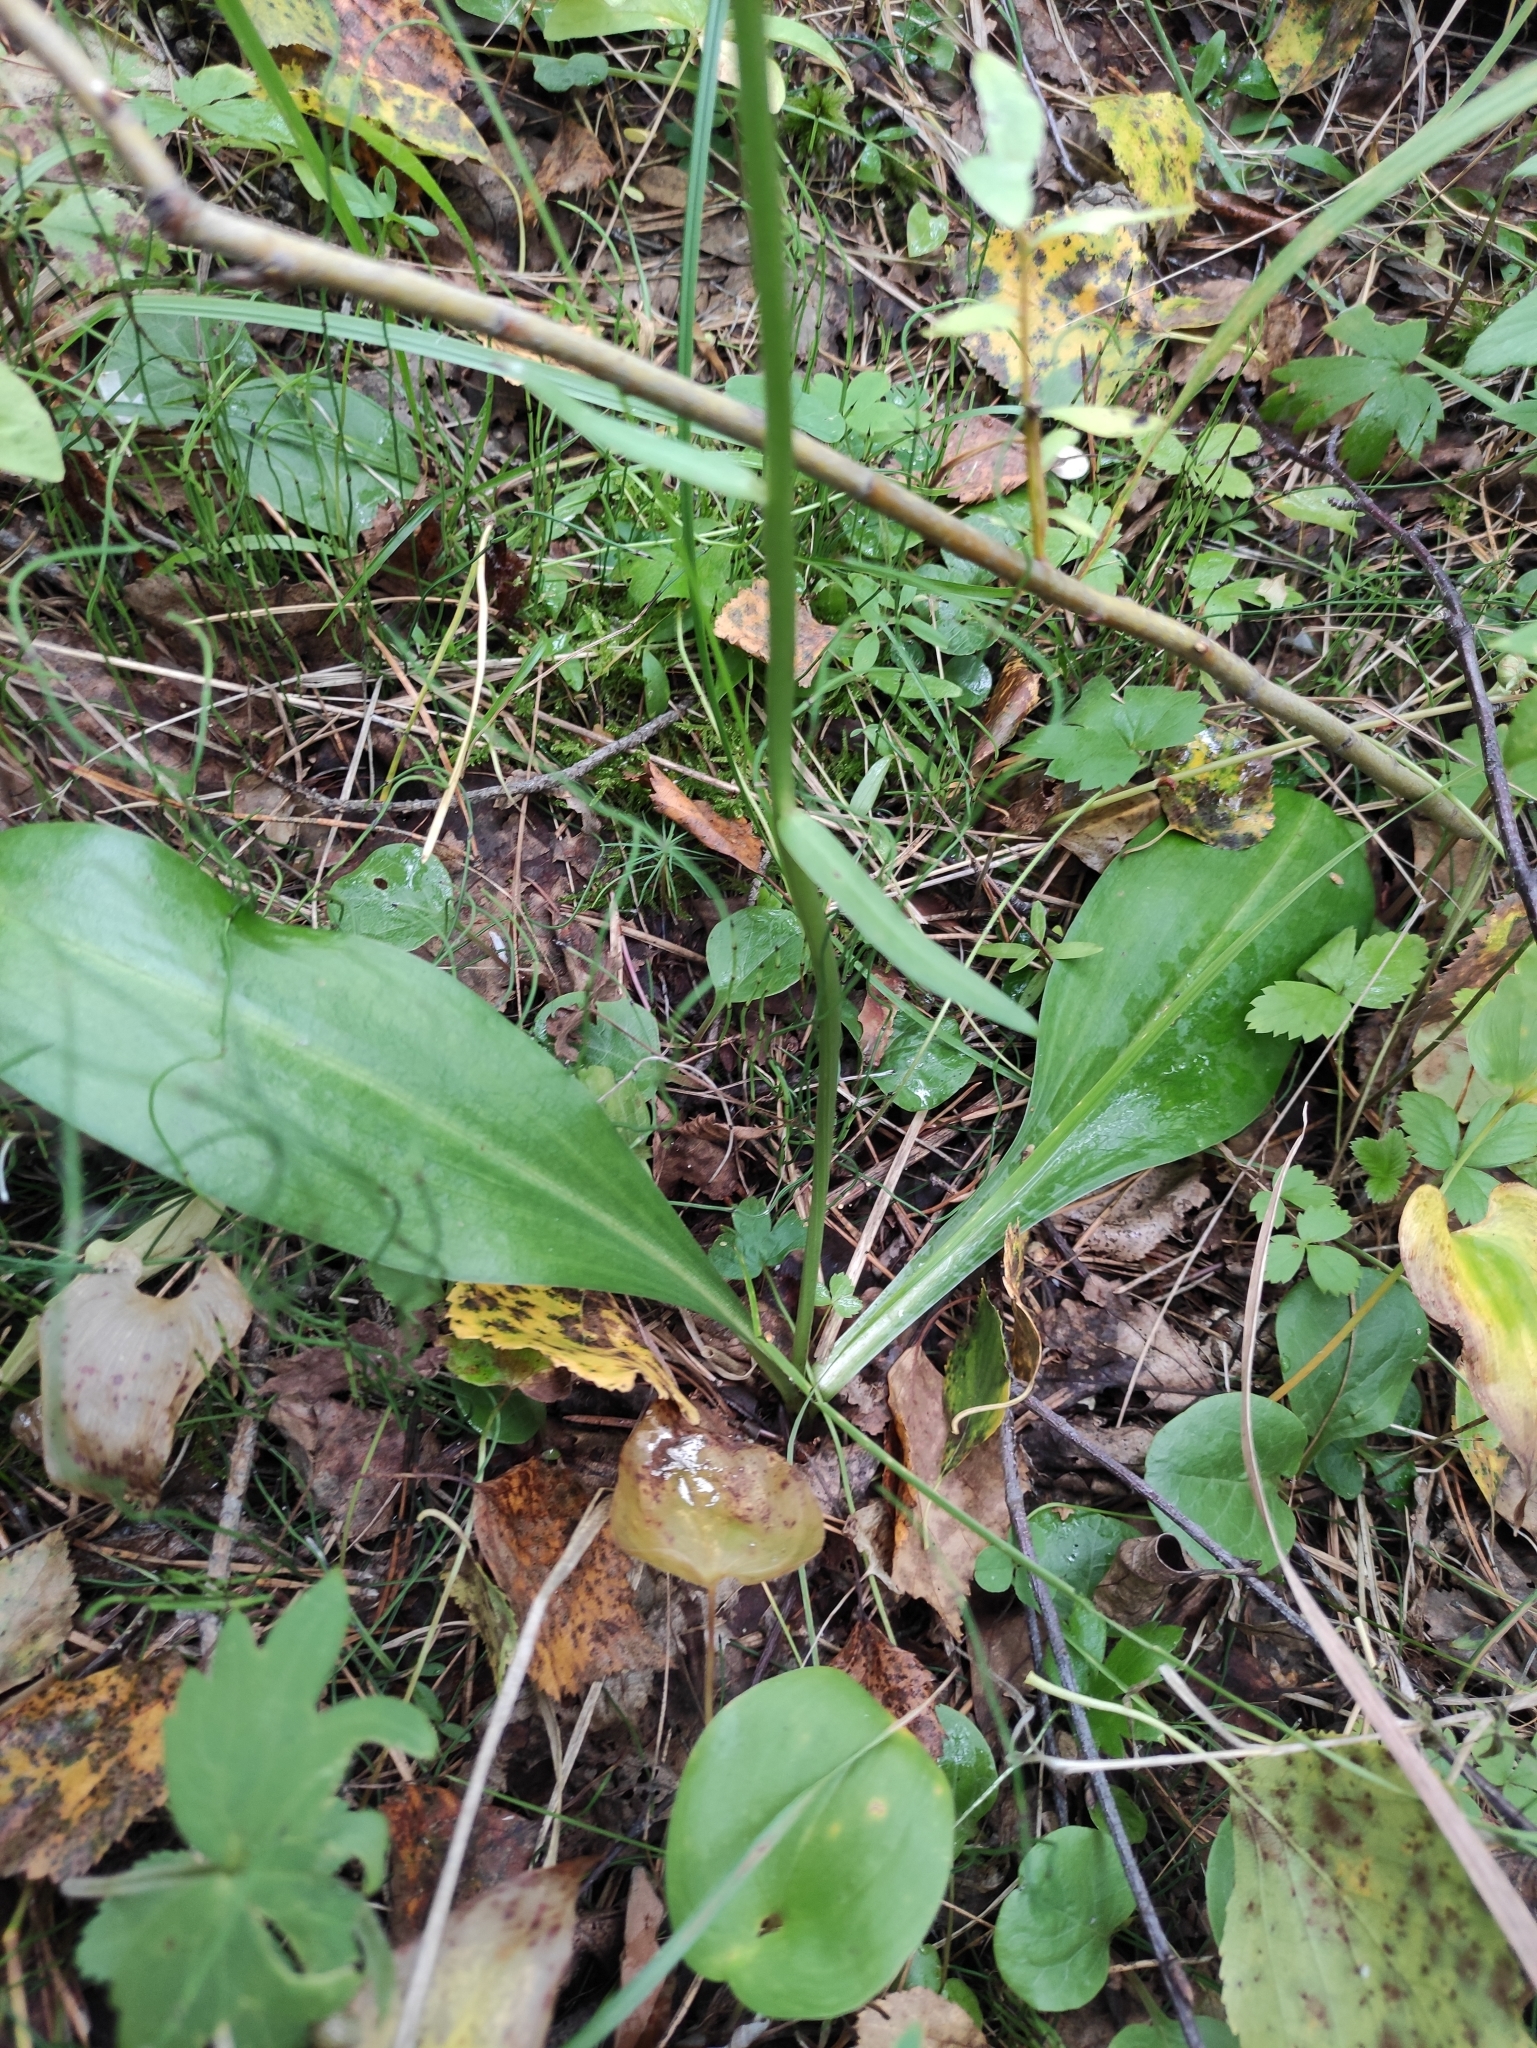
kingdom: Plantae
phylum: Tracheophyta
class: Liliopsida
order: Asparagales
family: Orchidaceae
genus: Platanthera
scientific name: Platanthera bifolia
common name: Lesser butterfly-orchid
